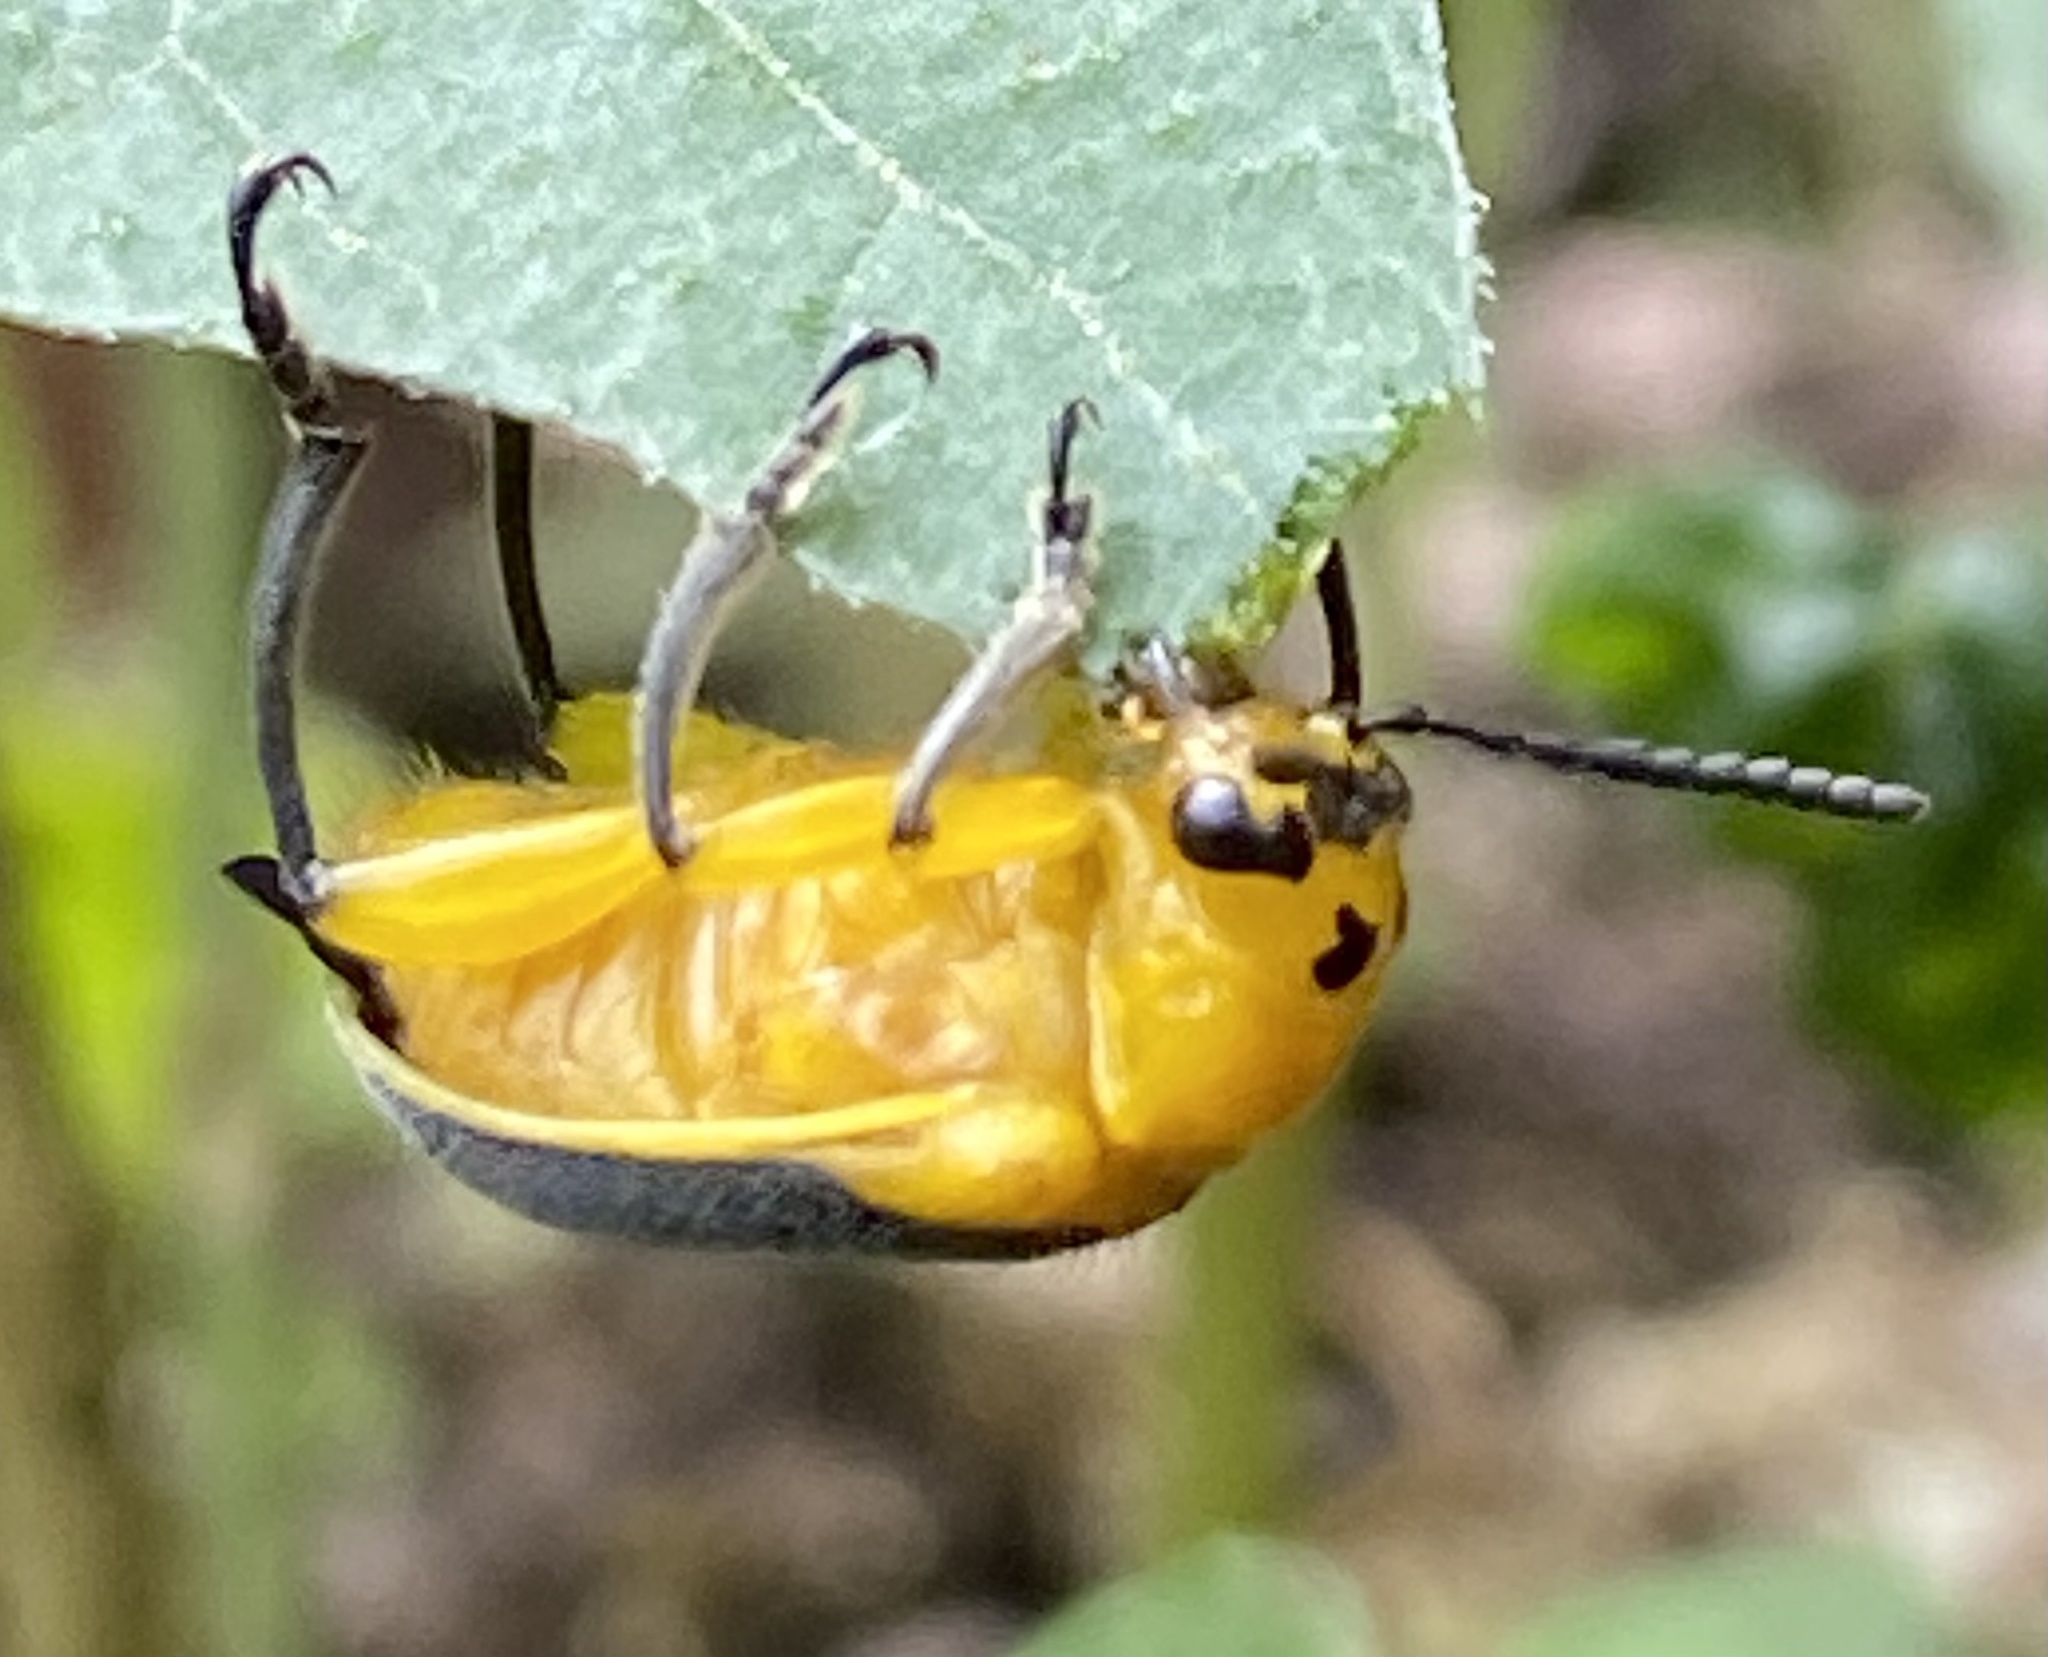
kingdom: Animalia
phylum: Arthropoda
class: Insecta
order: Coleoptera
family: Megalopodidae
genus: Agathomerus
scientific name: Agathomerus sellatus
